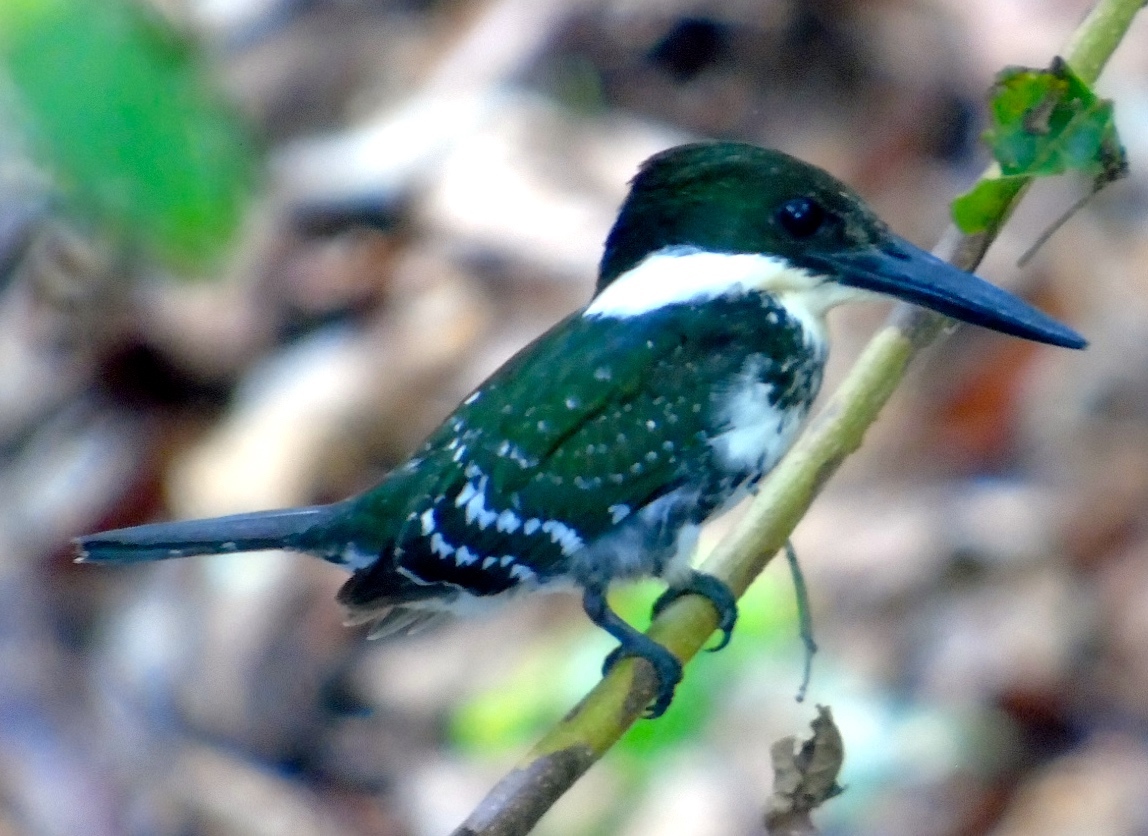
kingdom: Animalia
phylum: Chordata
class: Aves
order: Coraciiformes
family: Alcedinidae
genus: Chloroceryle
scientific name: Chloroceryle americana
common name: Green kingfisher
